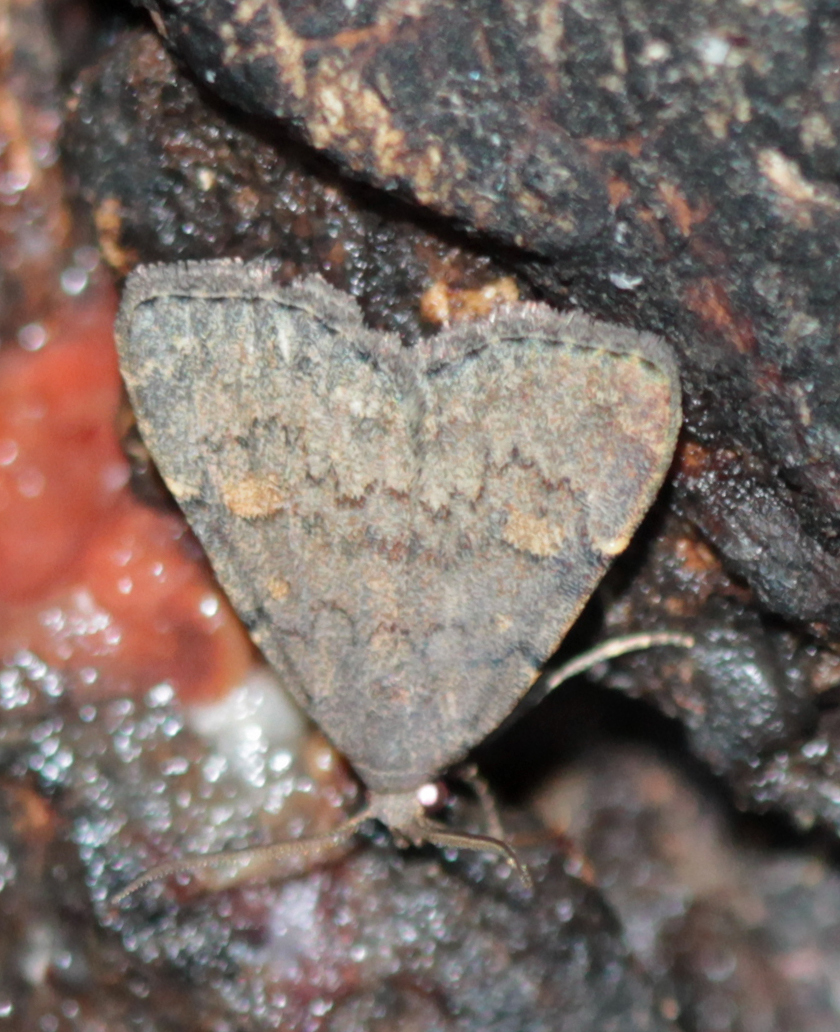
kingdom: Animalia
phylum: Arthropoda
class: Insecta
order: Lepidoptera
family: Erebidae
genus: Idia
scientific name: Idia aemula
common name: Common idia moth
